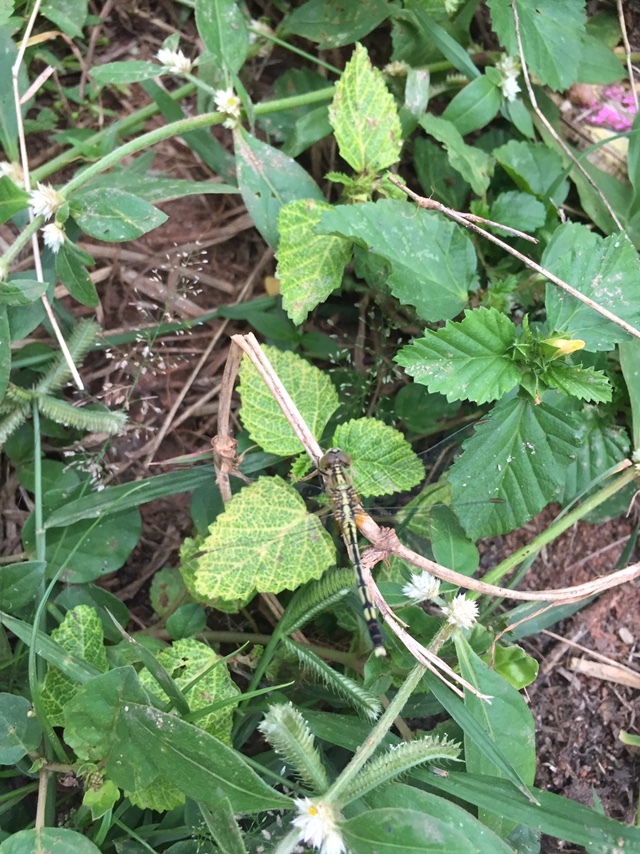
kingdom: Animalia
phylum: Arthropoda
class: Insecta
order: Odonata
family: Libellulidae
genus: Diplacodes
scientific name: Diplacodes trivialis
